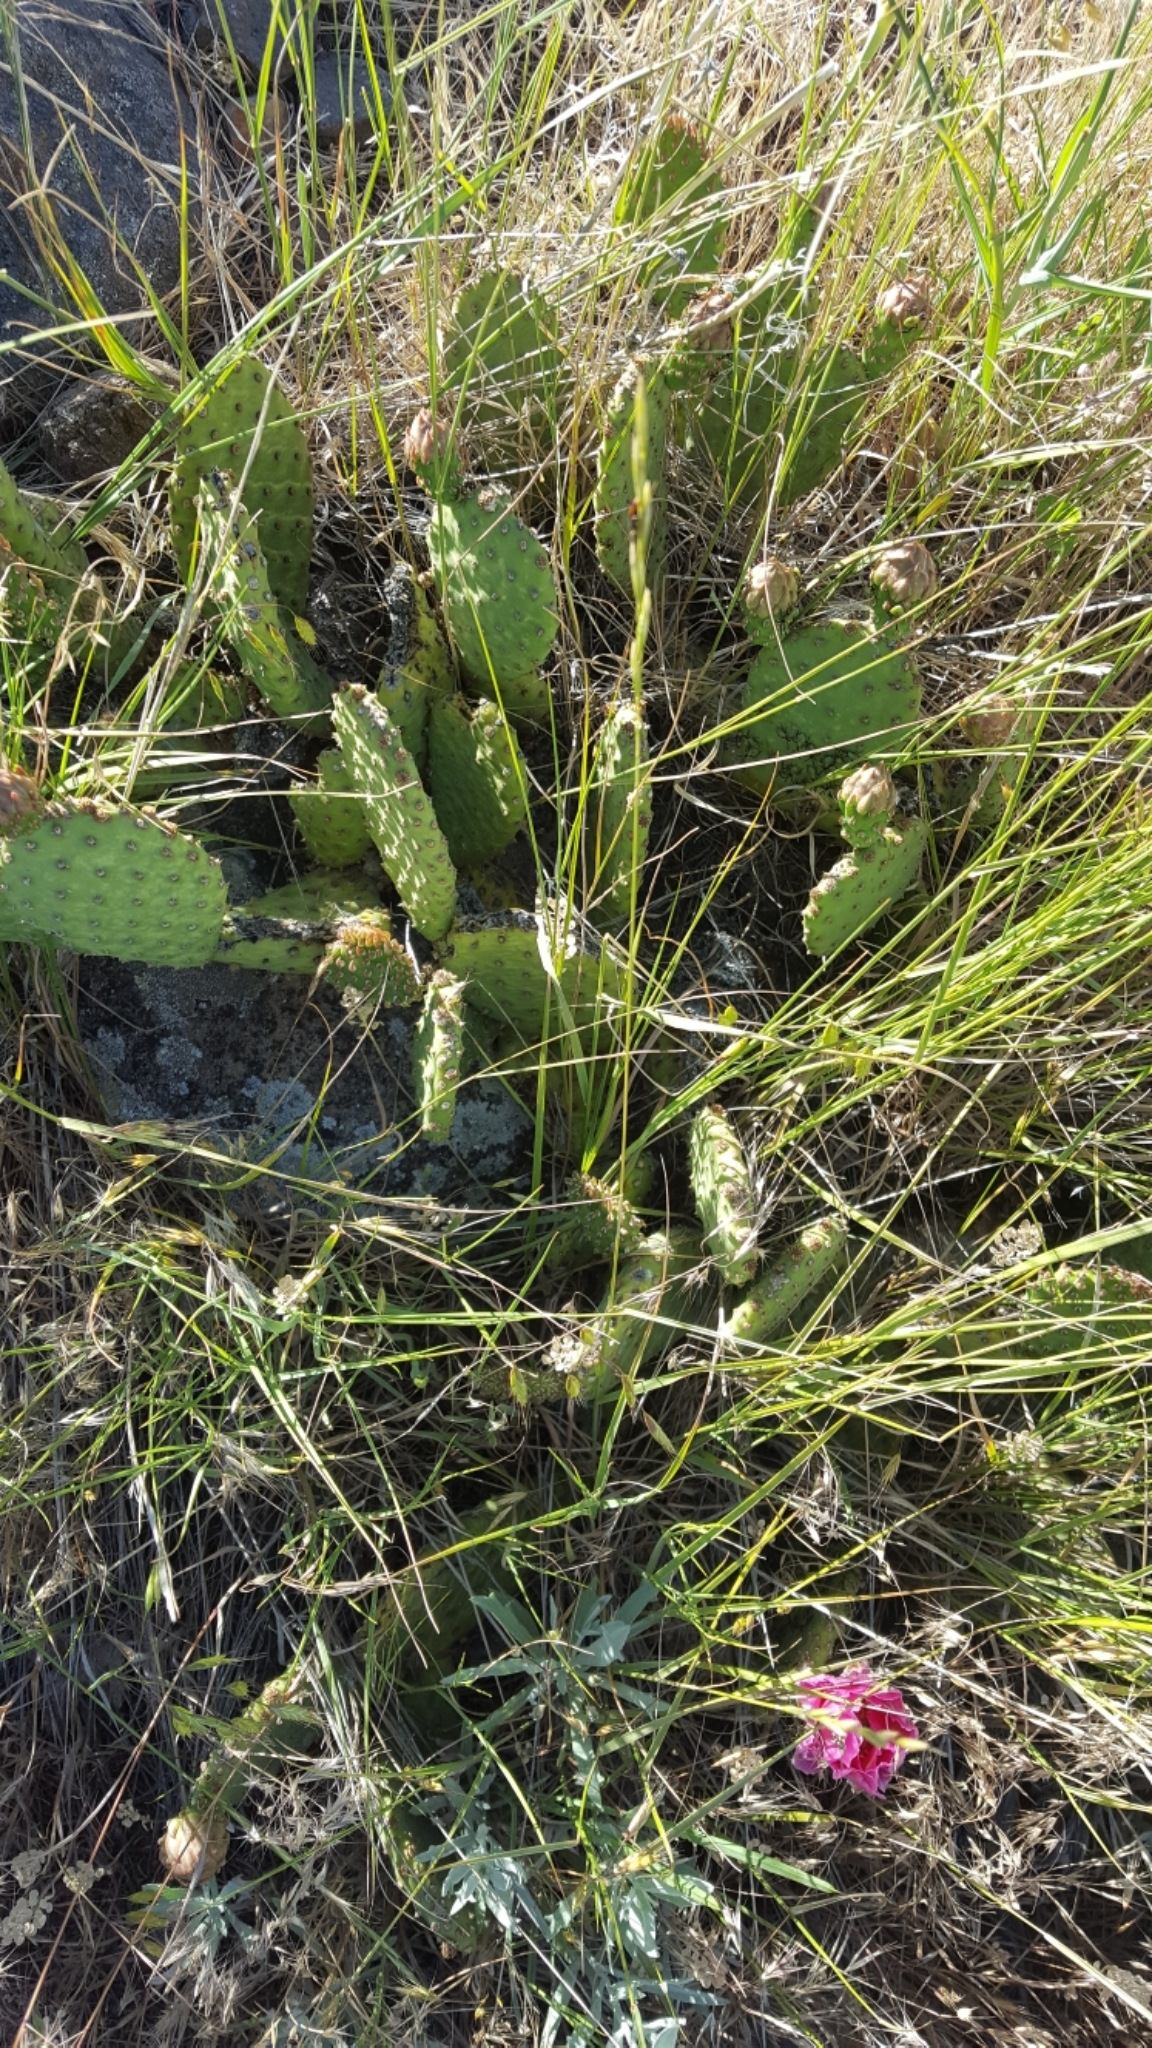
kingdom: Plantae
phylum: Tracheophyta
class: Magnoliopsida
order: Caryophyllales
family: Cactaceae
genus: Opuntia
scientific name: Opuntia polyacantha
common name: Plains prickly-pear
